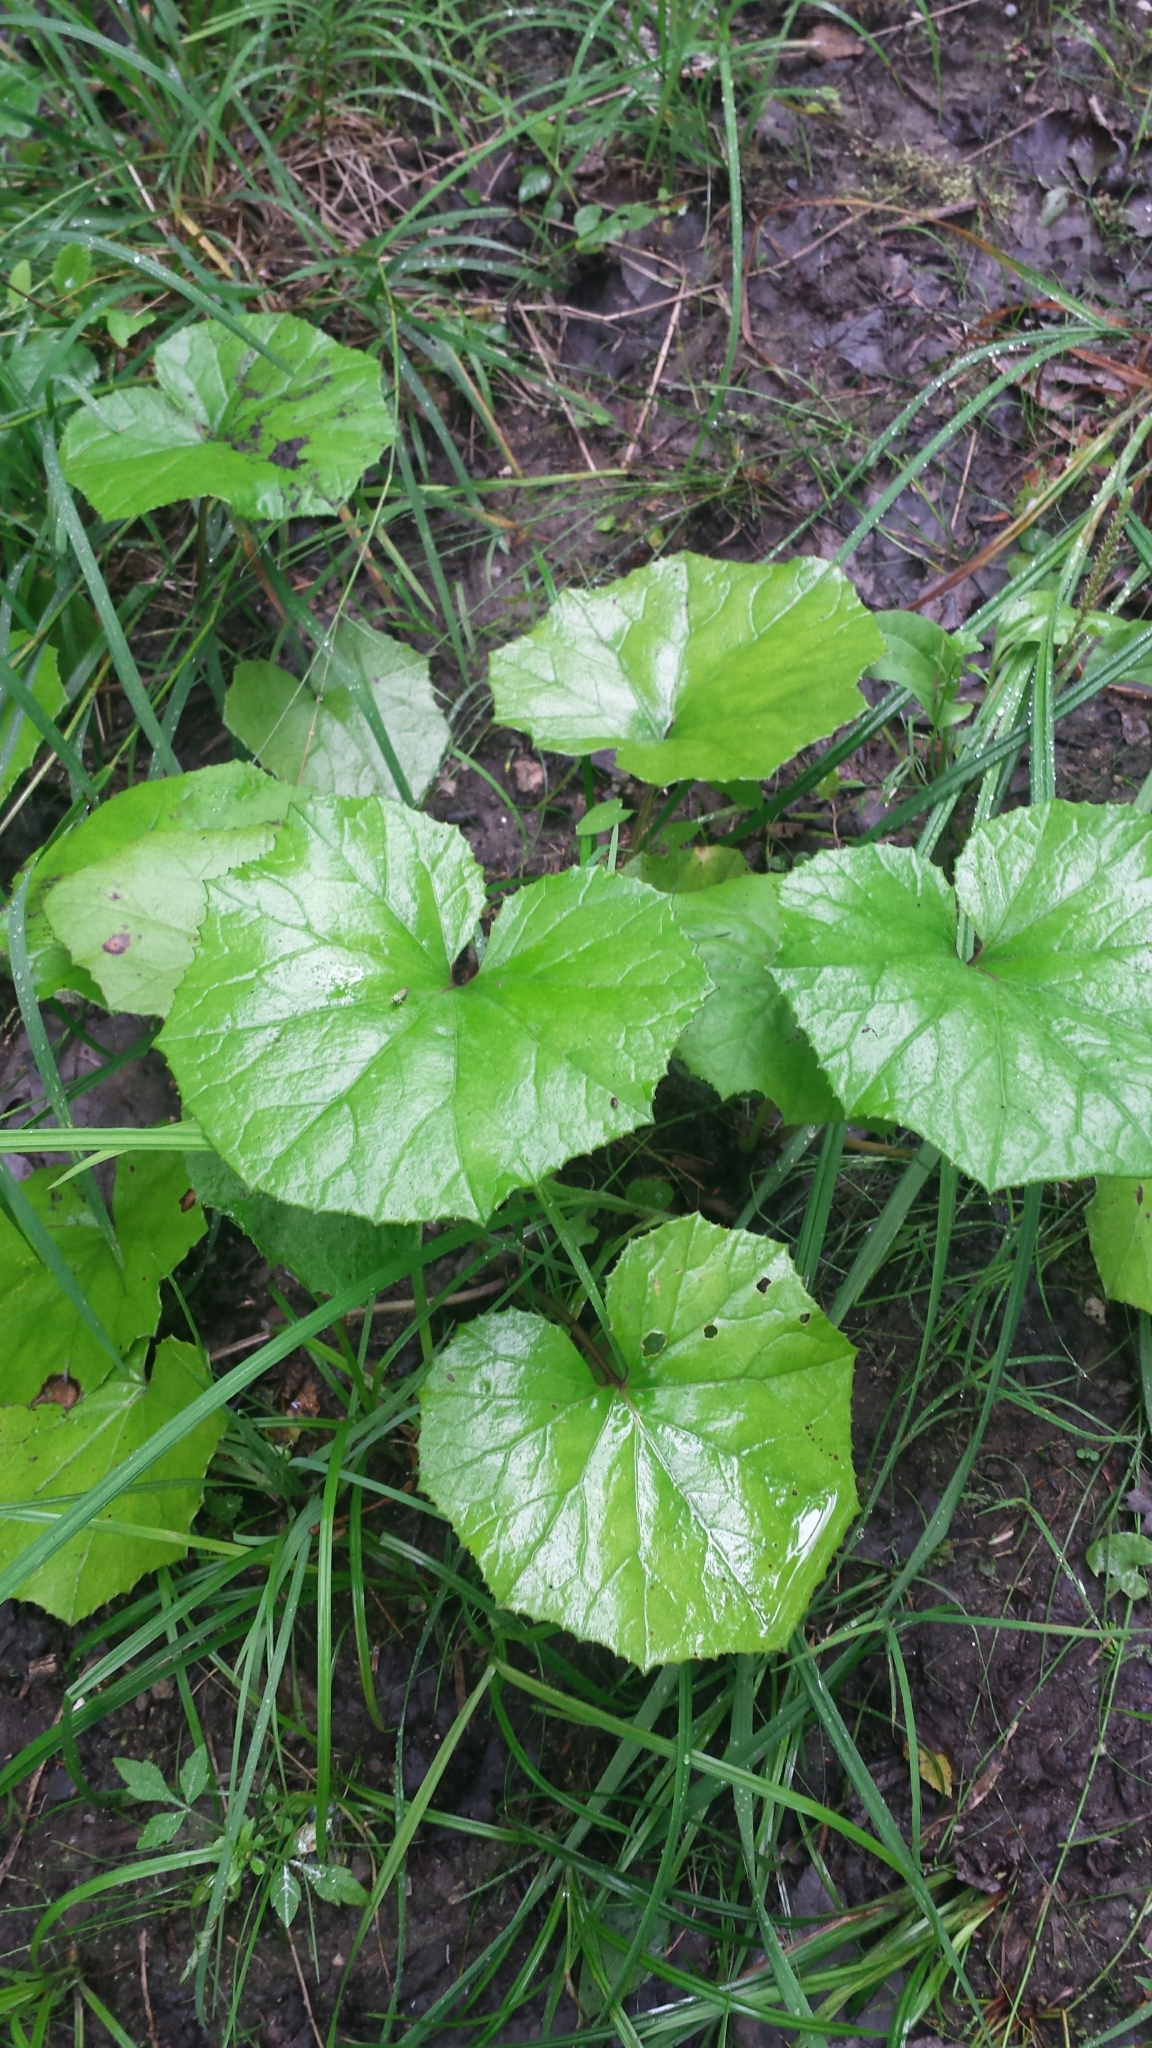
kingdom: Plantae
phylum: Tracheophyta
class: Magnoliopsida
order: Asterales
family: Asteraceae
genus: Tussilago
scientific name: Tussilago farfara
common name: Coltsfoot
